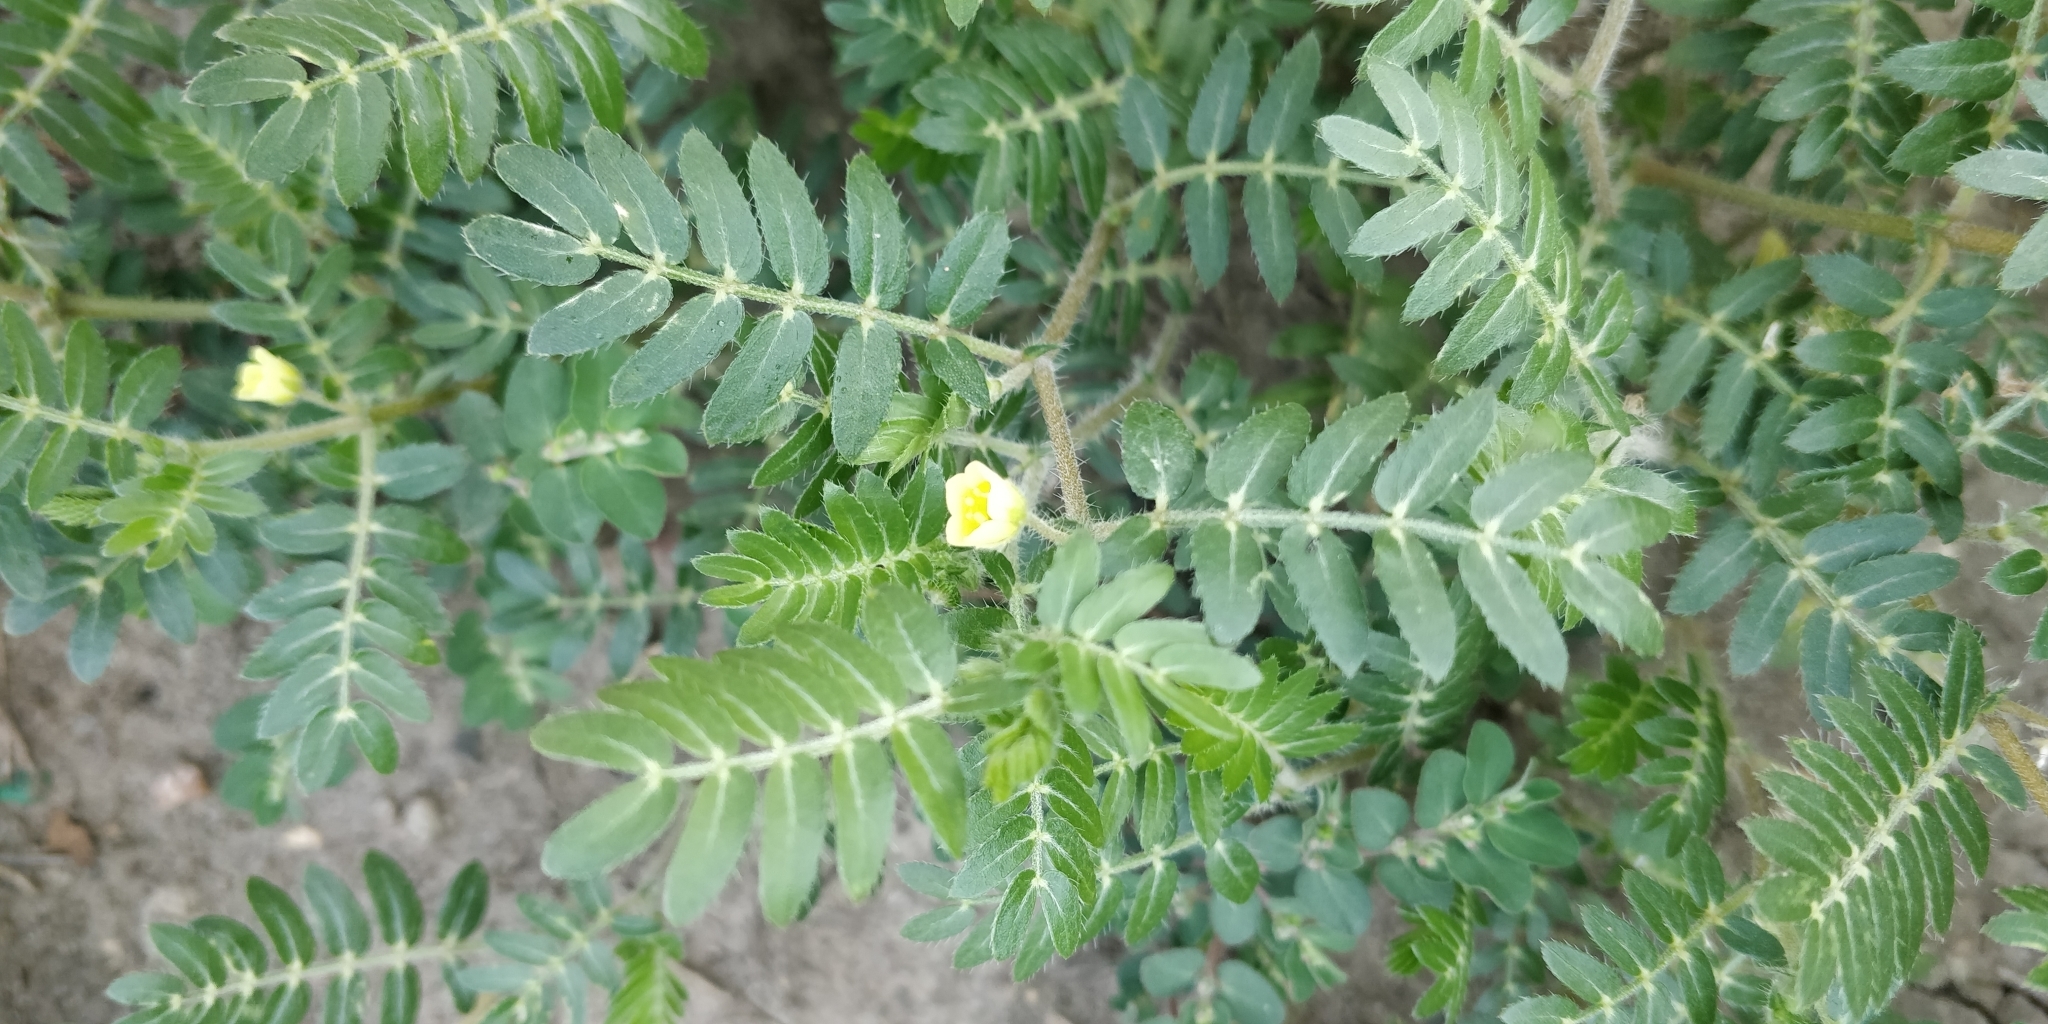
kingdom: Plantae
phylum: Tracheophyta
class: Magnoliopsida
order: Zygophyllales
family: Zygophyllaceae
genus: Tribulus
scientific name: Tribulus terrestris
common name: Puncturevine
